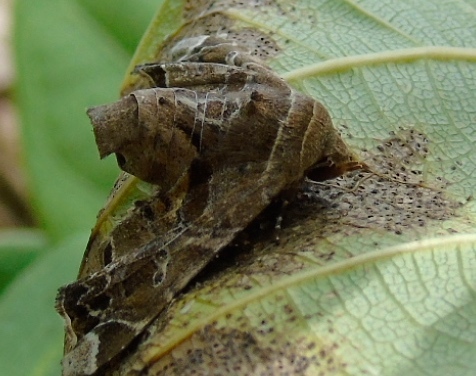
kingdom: Animalia
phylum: Arthropoda
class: Insecta
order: Lepidoptera
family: Euteliidae
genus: Eutelia
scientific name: Eutelia
